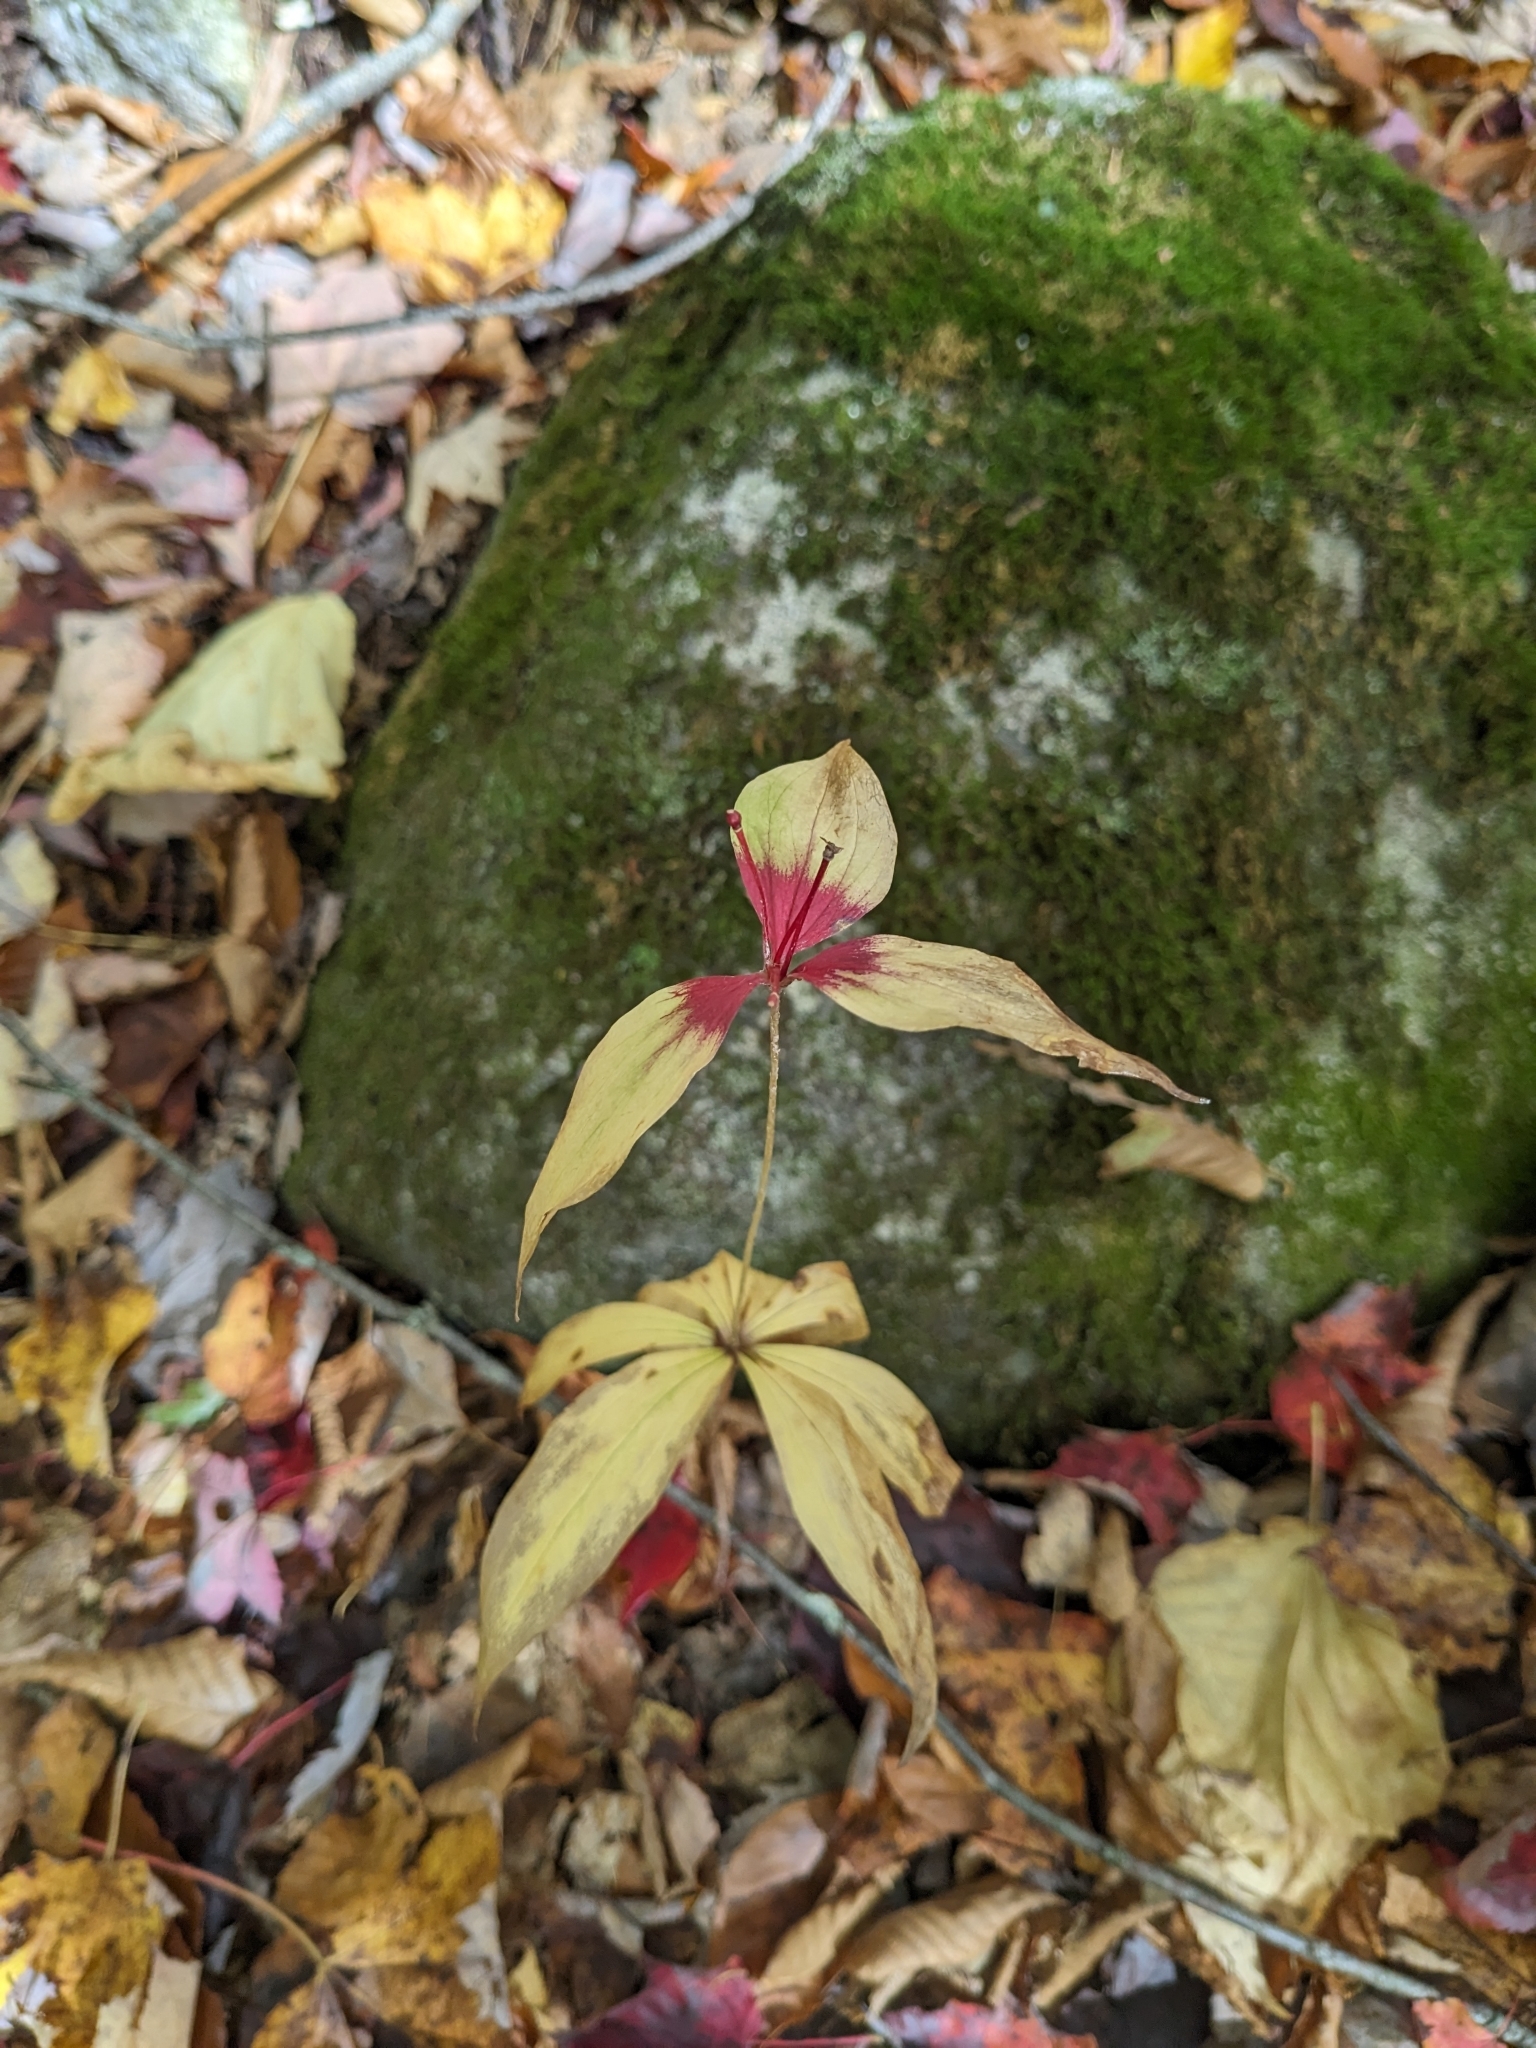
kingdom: Plantae
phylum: Tracheophyta
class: Liliopsida
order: Liliales
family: Liliaceae
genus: Medeola
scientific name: Medeola virginiana
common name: Indian cucumber-root
